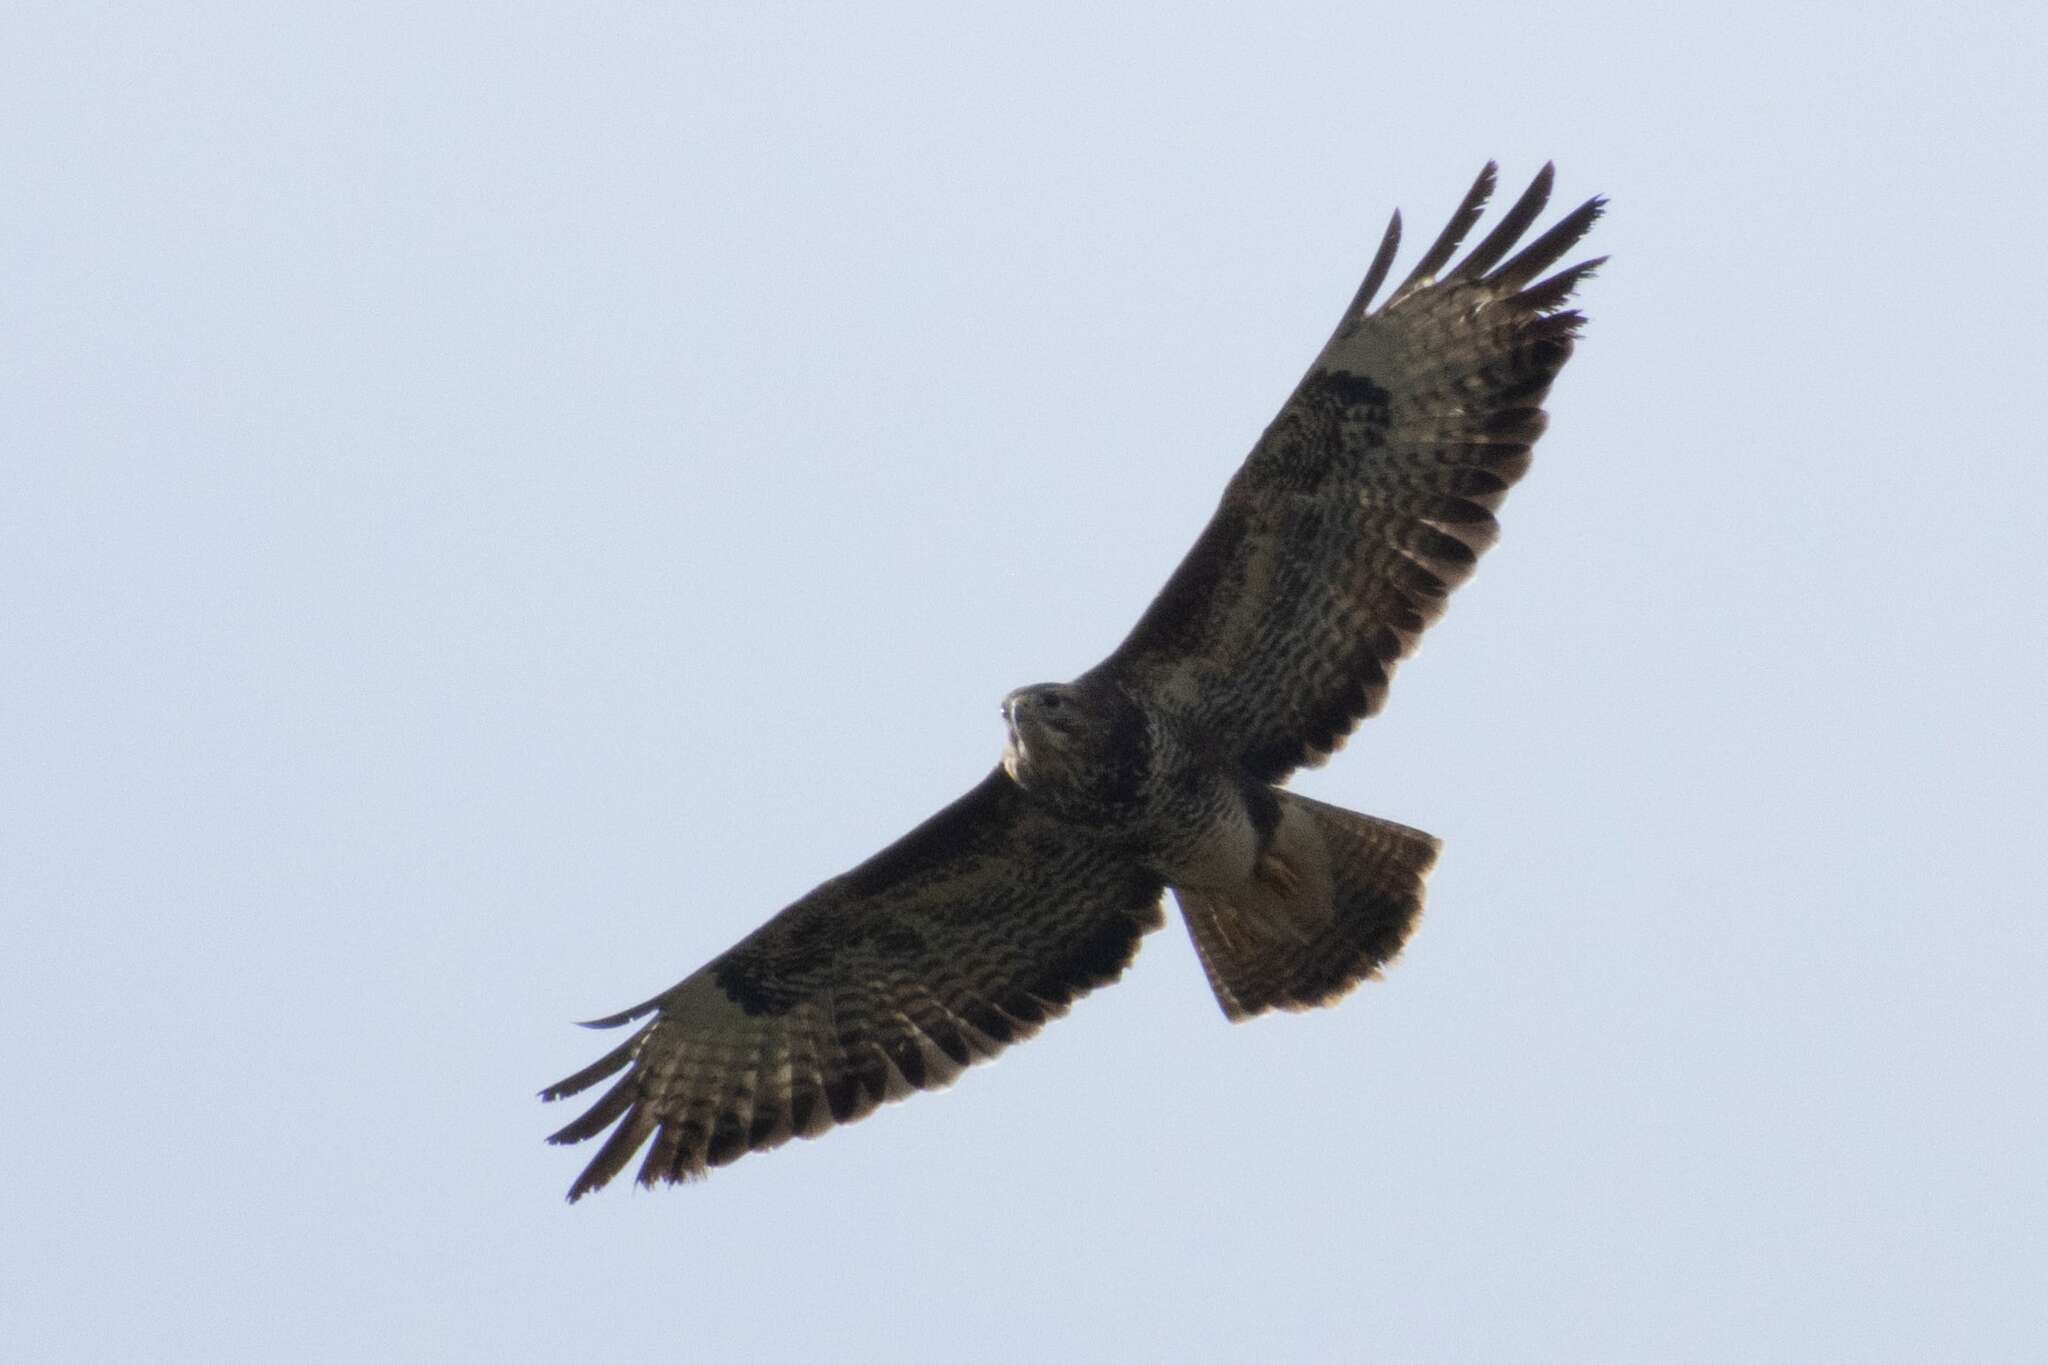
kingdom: Animalia
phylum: Chordata
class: Aves
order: Accipitriformes
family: Accipitridae
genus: Buteo
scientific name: Buteo buteo
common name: Common buzzard
